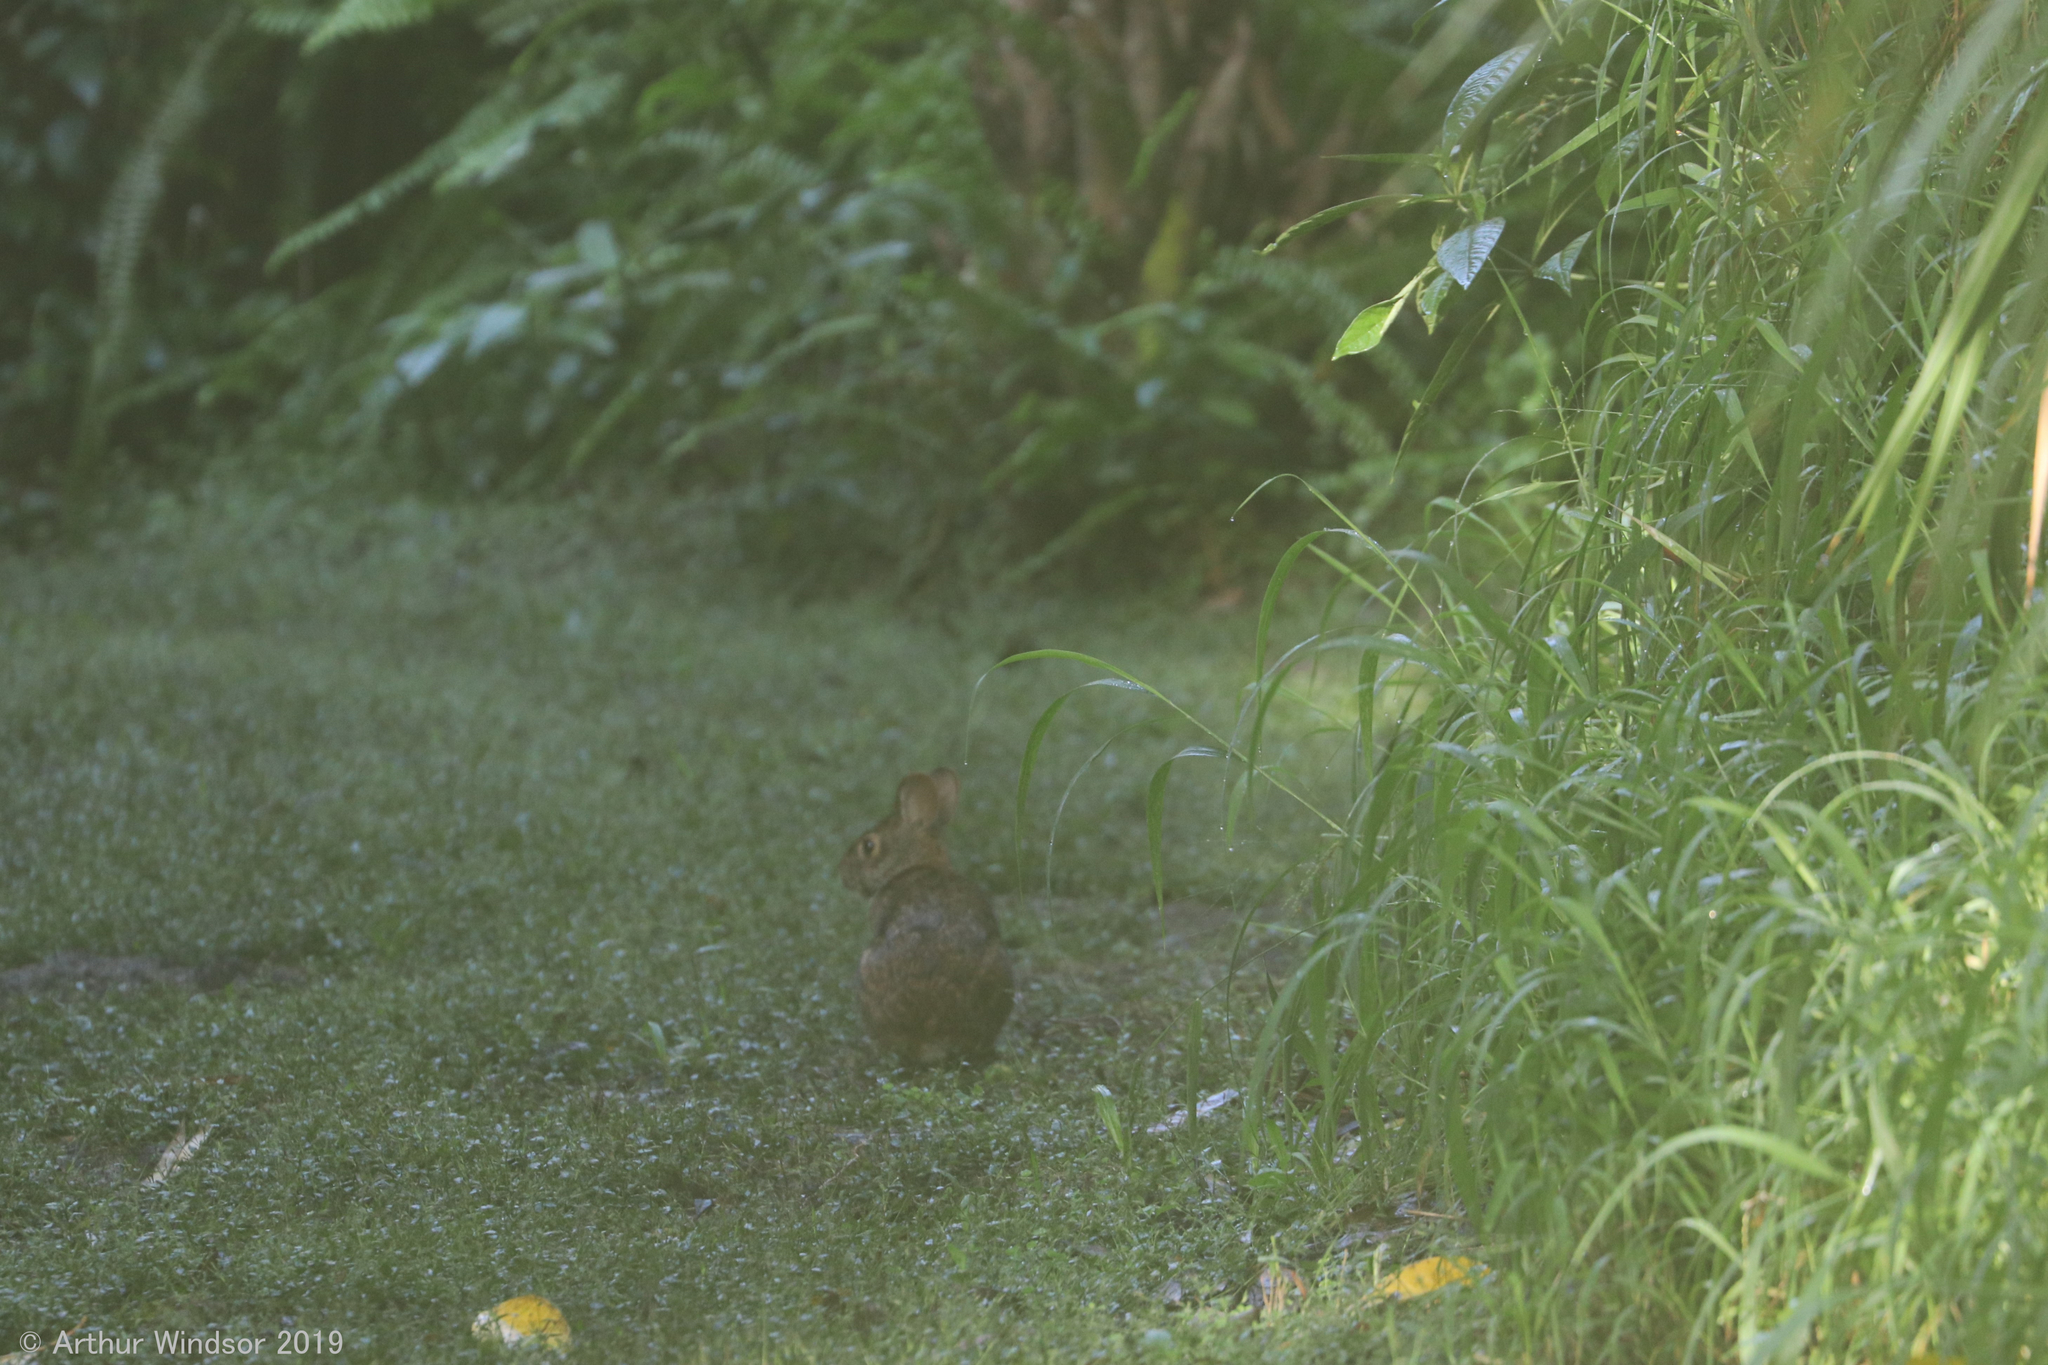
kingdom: Animalia
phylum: Chordata
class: Mammalia
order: Lagomorpha
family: Leporidae
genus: Sylvilagus
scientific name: Sylvilagus palustris
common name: Marsh rabbit
